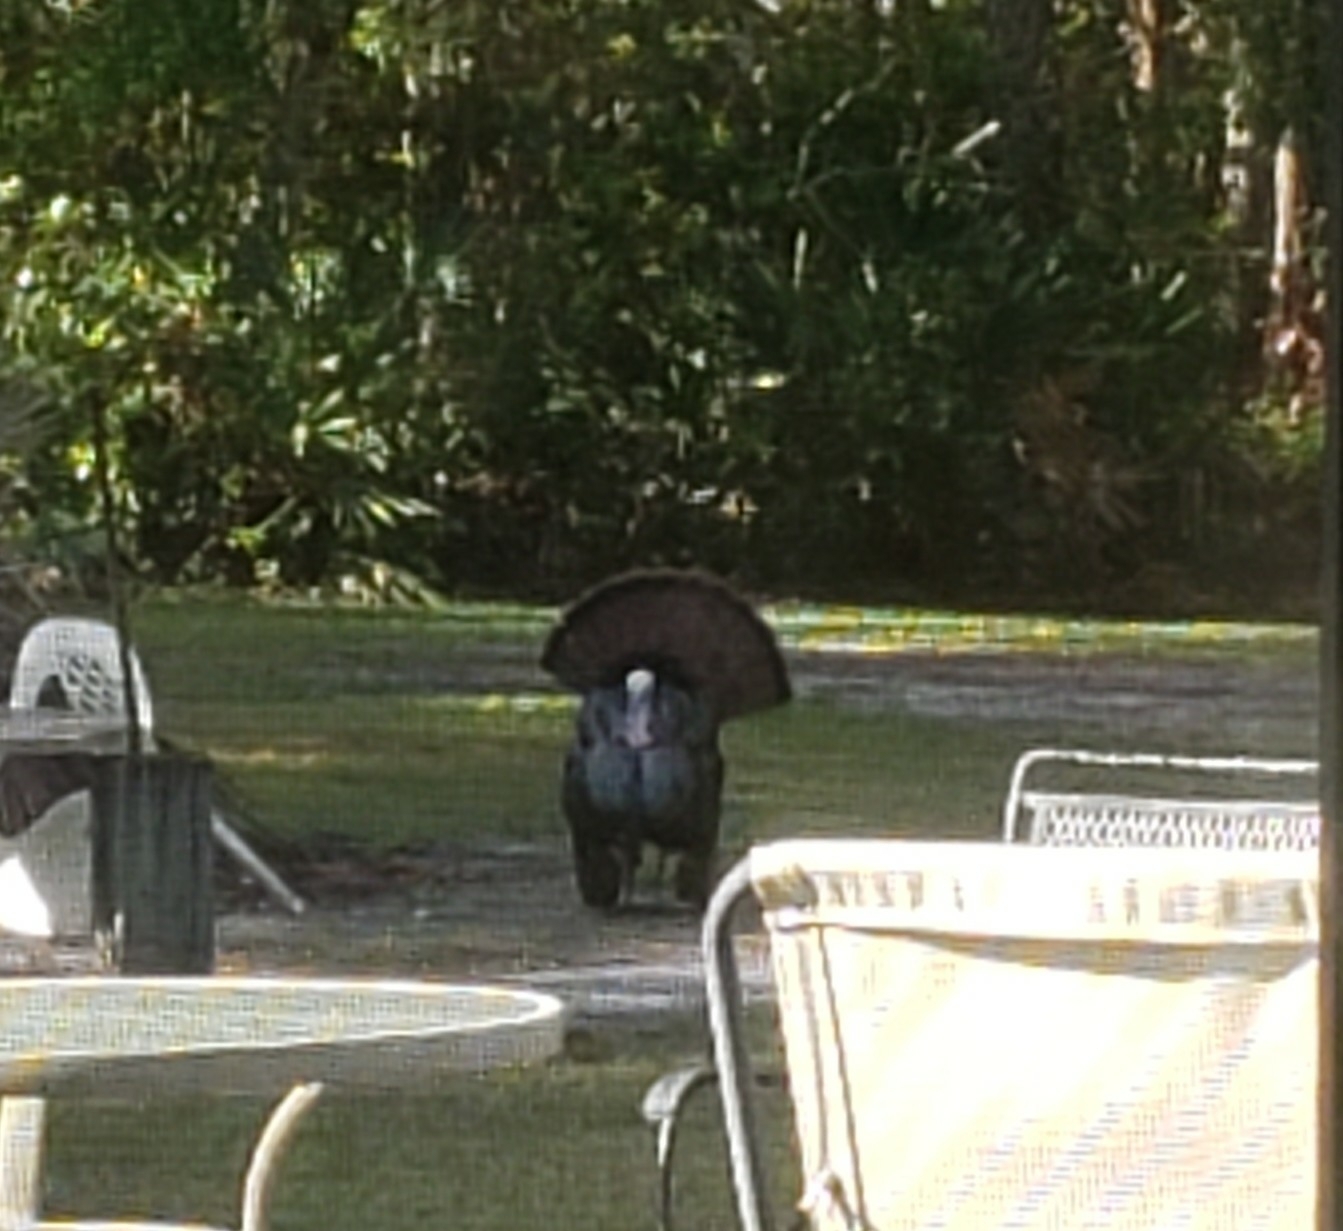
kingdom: Animalia
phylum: Chordata
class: Aves
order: Galliformes
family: Phasianidae
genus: Meleagris
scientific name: Meleagris gallopavo
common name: Wild turkey
